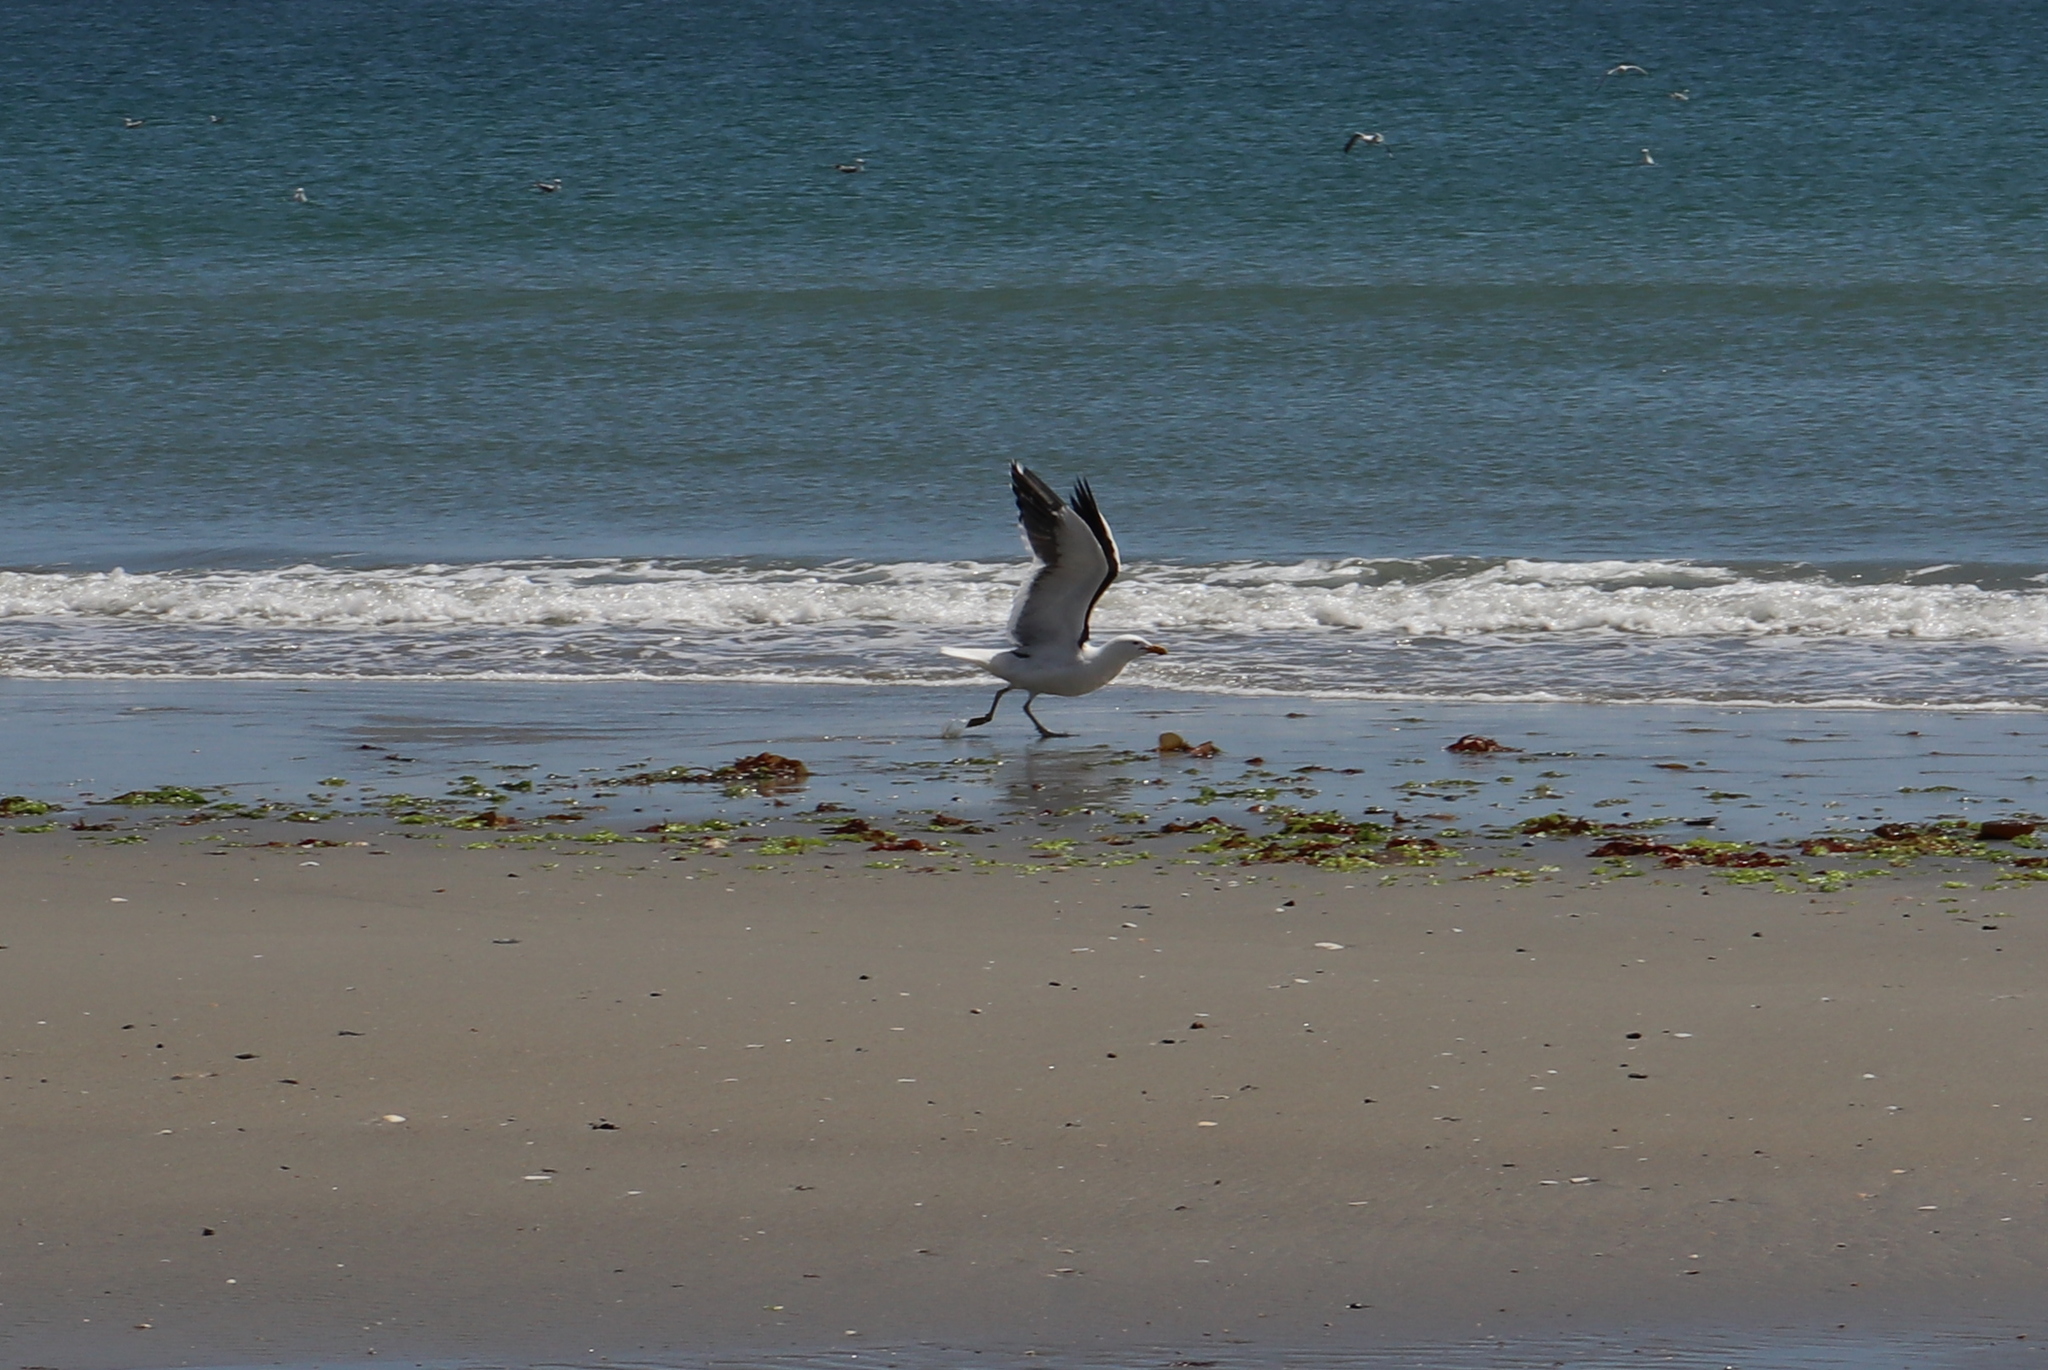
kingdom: Animalia
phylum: Chordata
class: Aves
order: Charadriiformes
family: Laridae
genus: Larus
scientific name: Larus dominicanus
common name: Kelp gull
